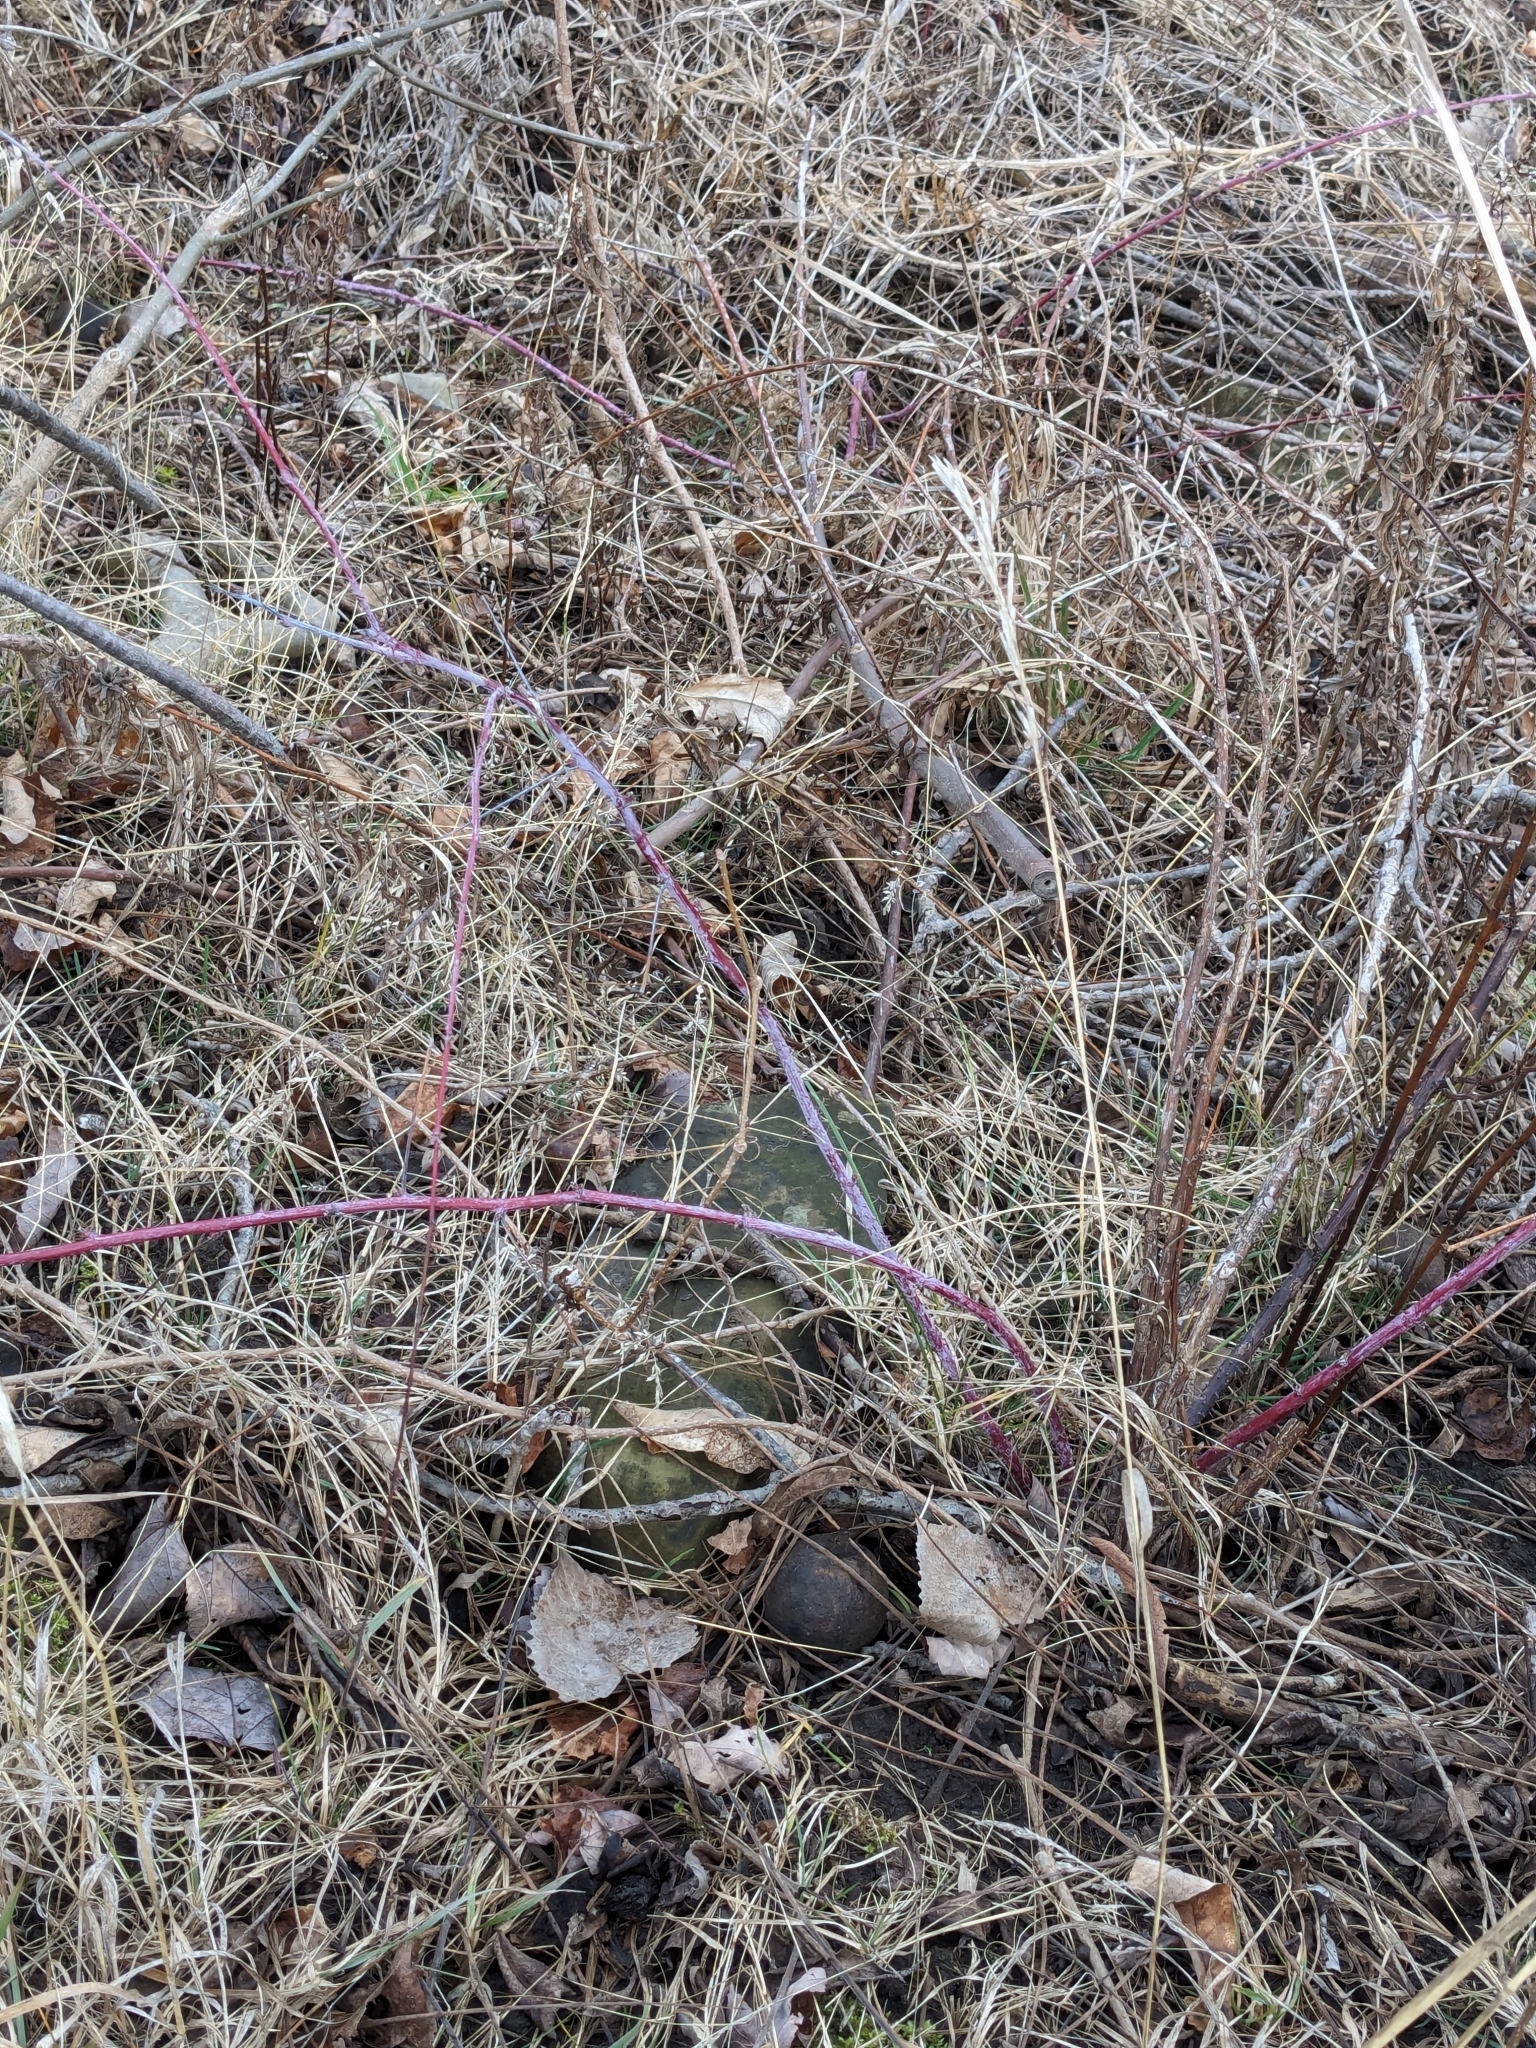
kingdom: Plantae
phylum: Tracheophyta
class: Magnoliopsida
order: Rosales
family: Rosaceae
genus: Rubus
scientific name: Rubus occidentalis
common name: Black raspberry
